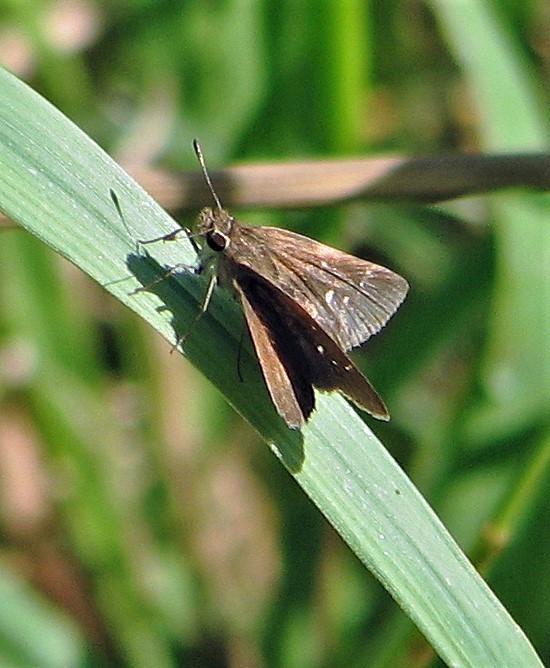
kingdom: Animalia
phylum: Arthropoda
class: Insecta
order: Lepidoptera
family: Hesperiidae
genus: Lerodea
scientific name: Lerodea eufala
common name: Eufala skipper
